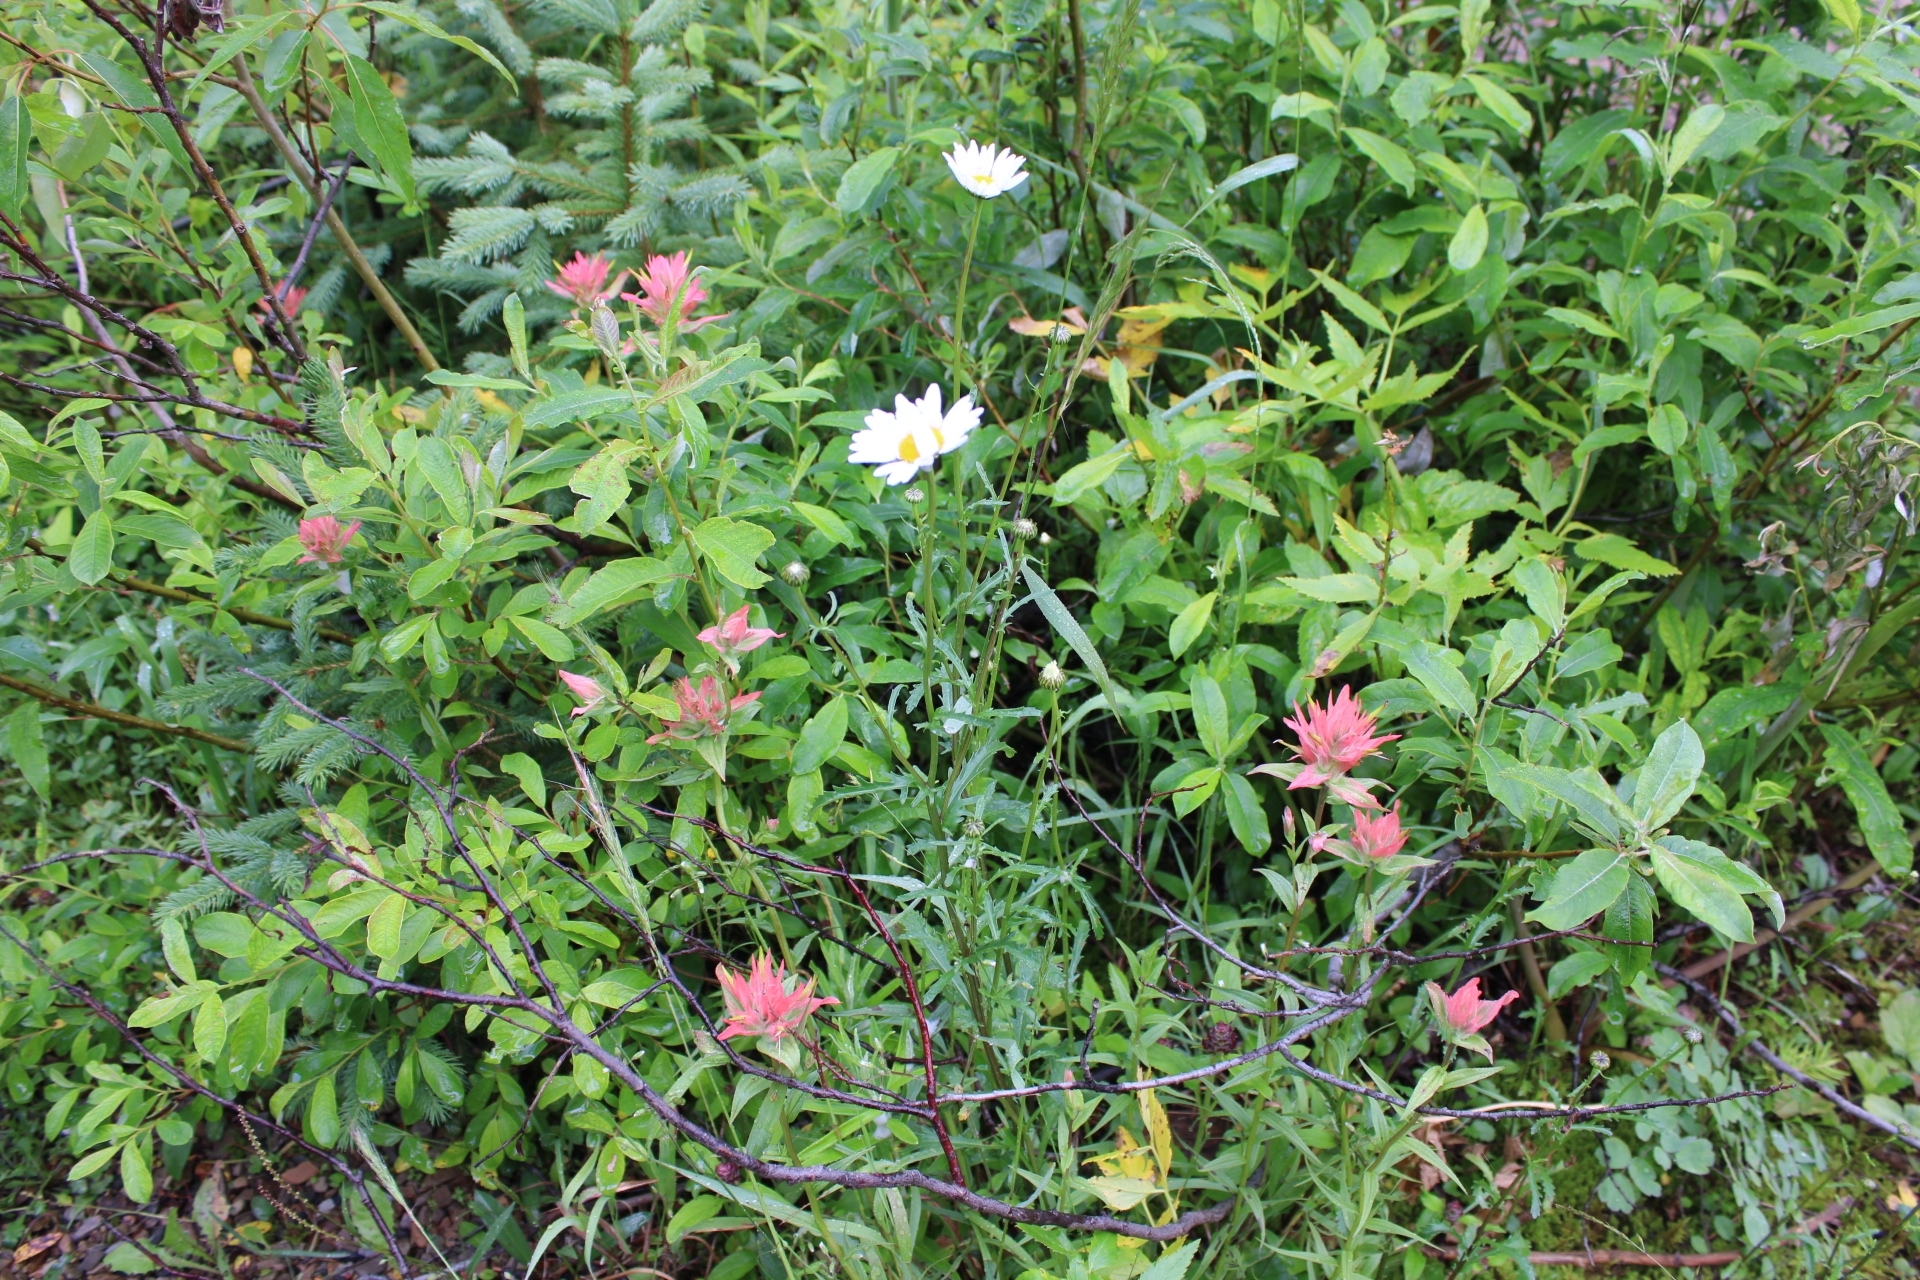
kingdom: Plantae
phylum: Tracheophyta
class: Magnoliopsida
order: Asterales
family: Asteraceae
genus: Leucanthemum
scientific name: Leucanthemum vulgare
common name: Oxeye daisy
